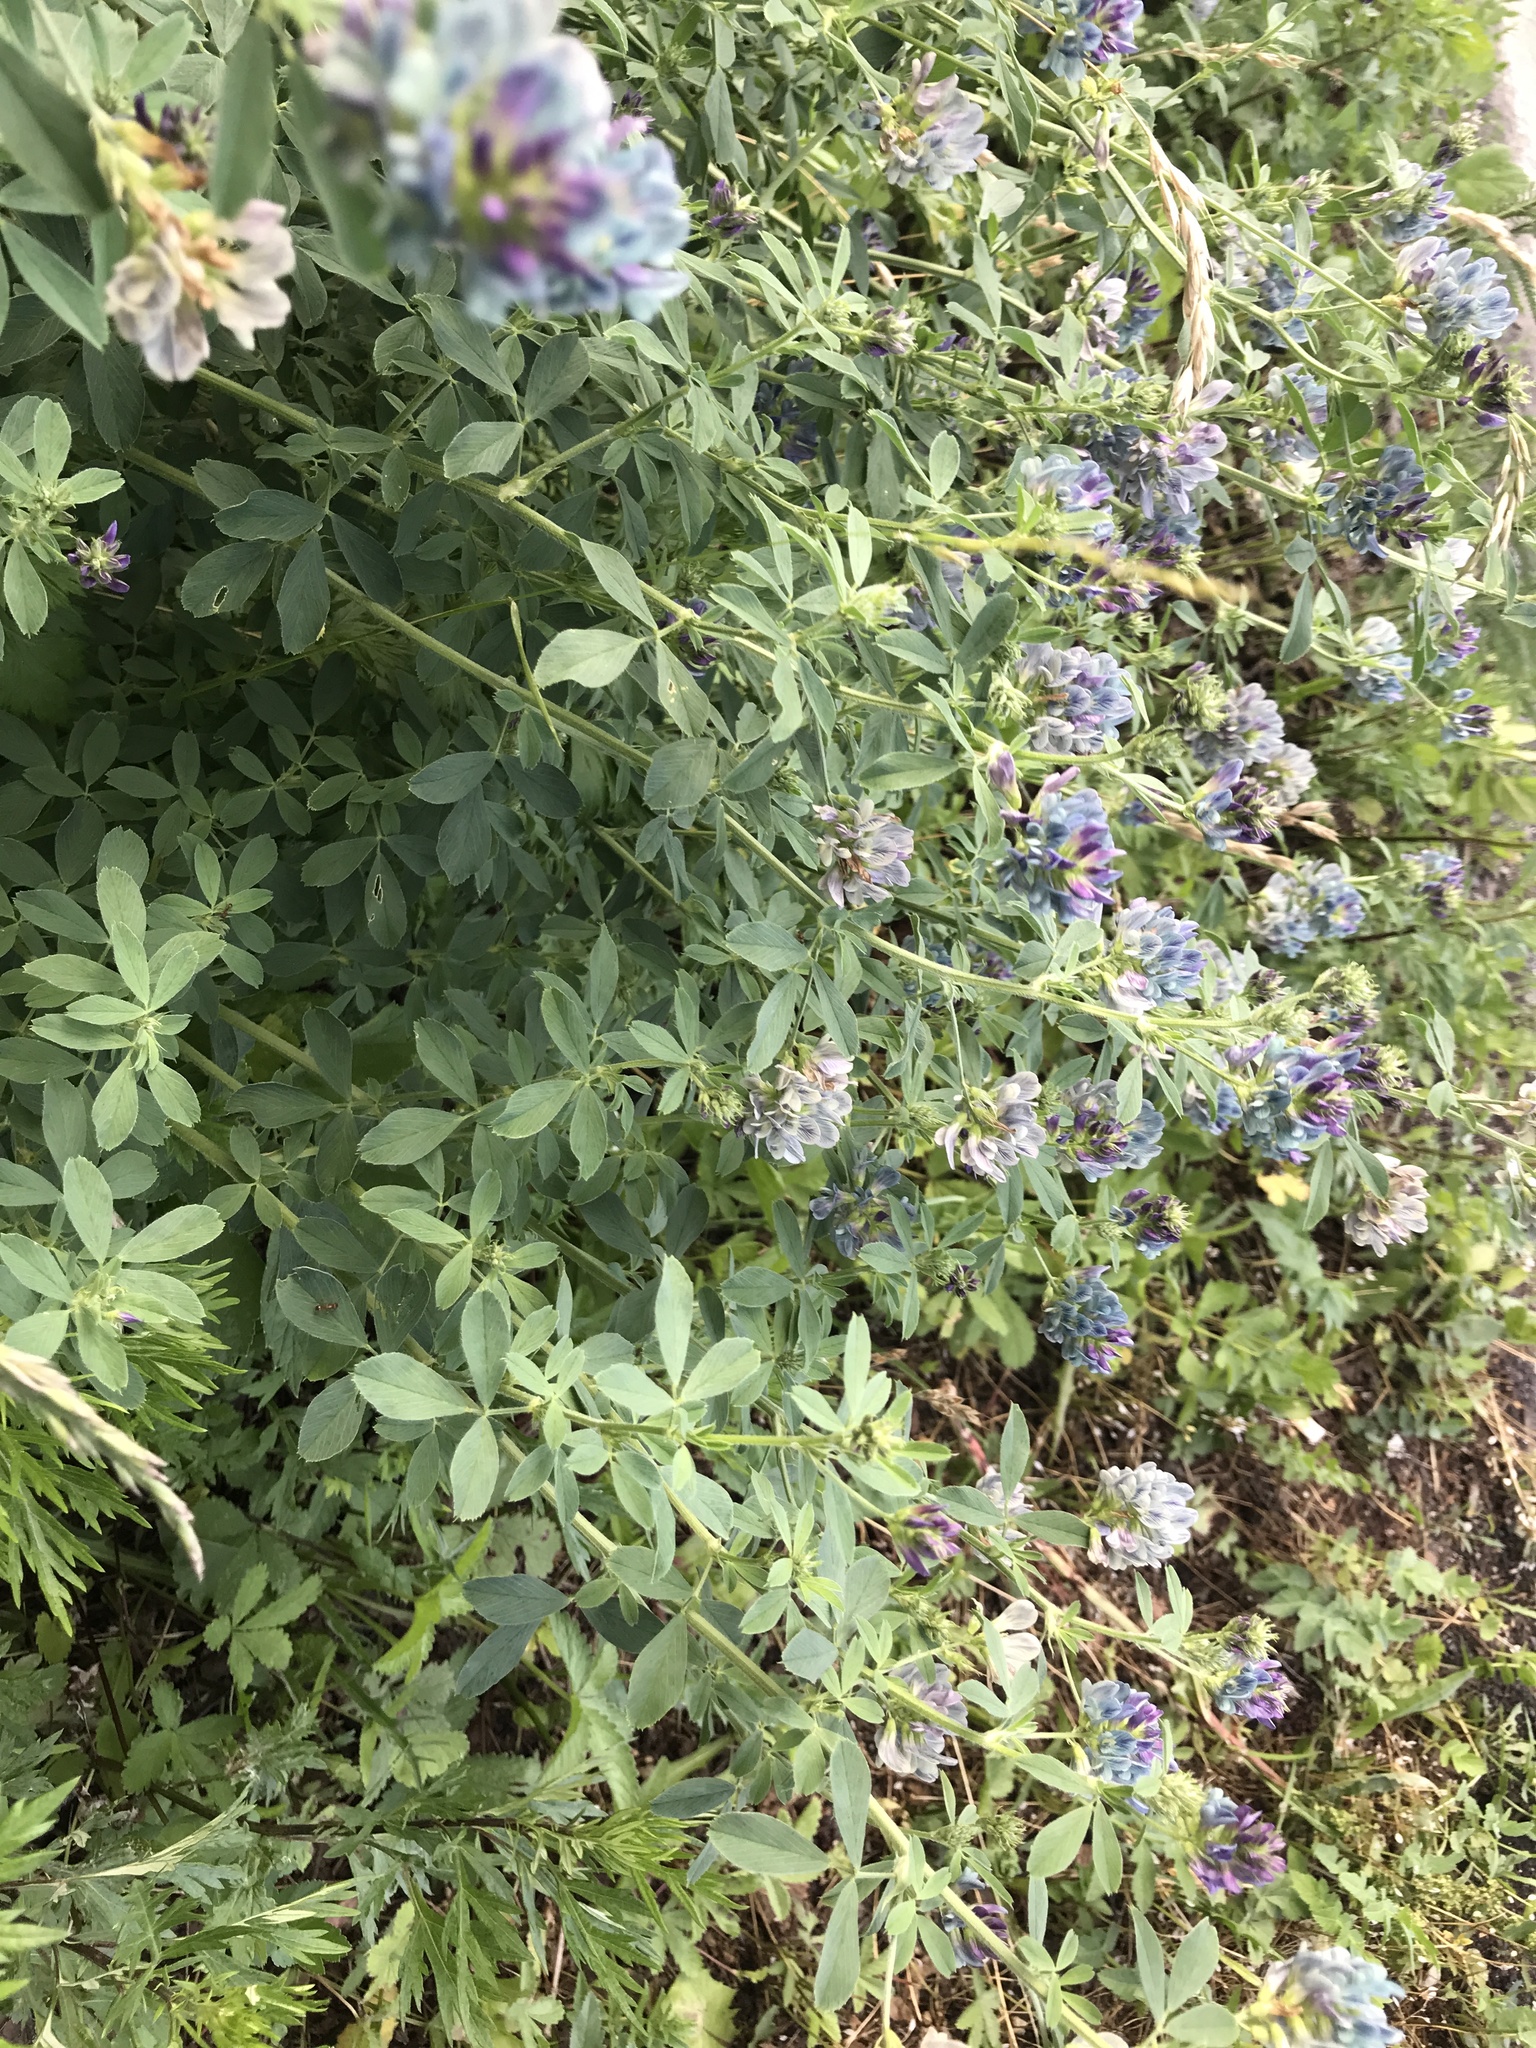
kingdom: Plantae
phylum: Tracheophyta
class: Magnoliopsida
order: Fabales
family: Fabaceae
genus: Medicago
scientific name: Medicago sativa
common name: Alfalfa
